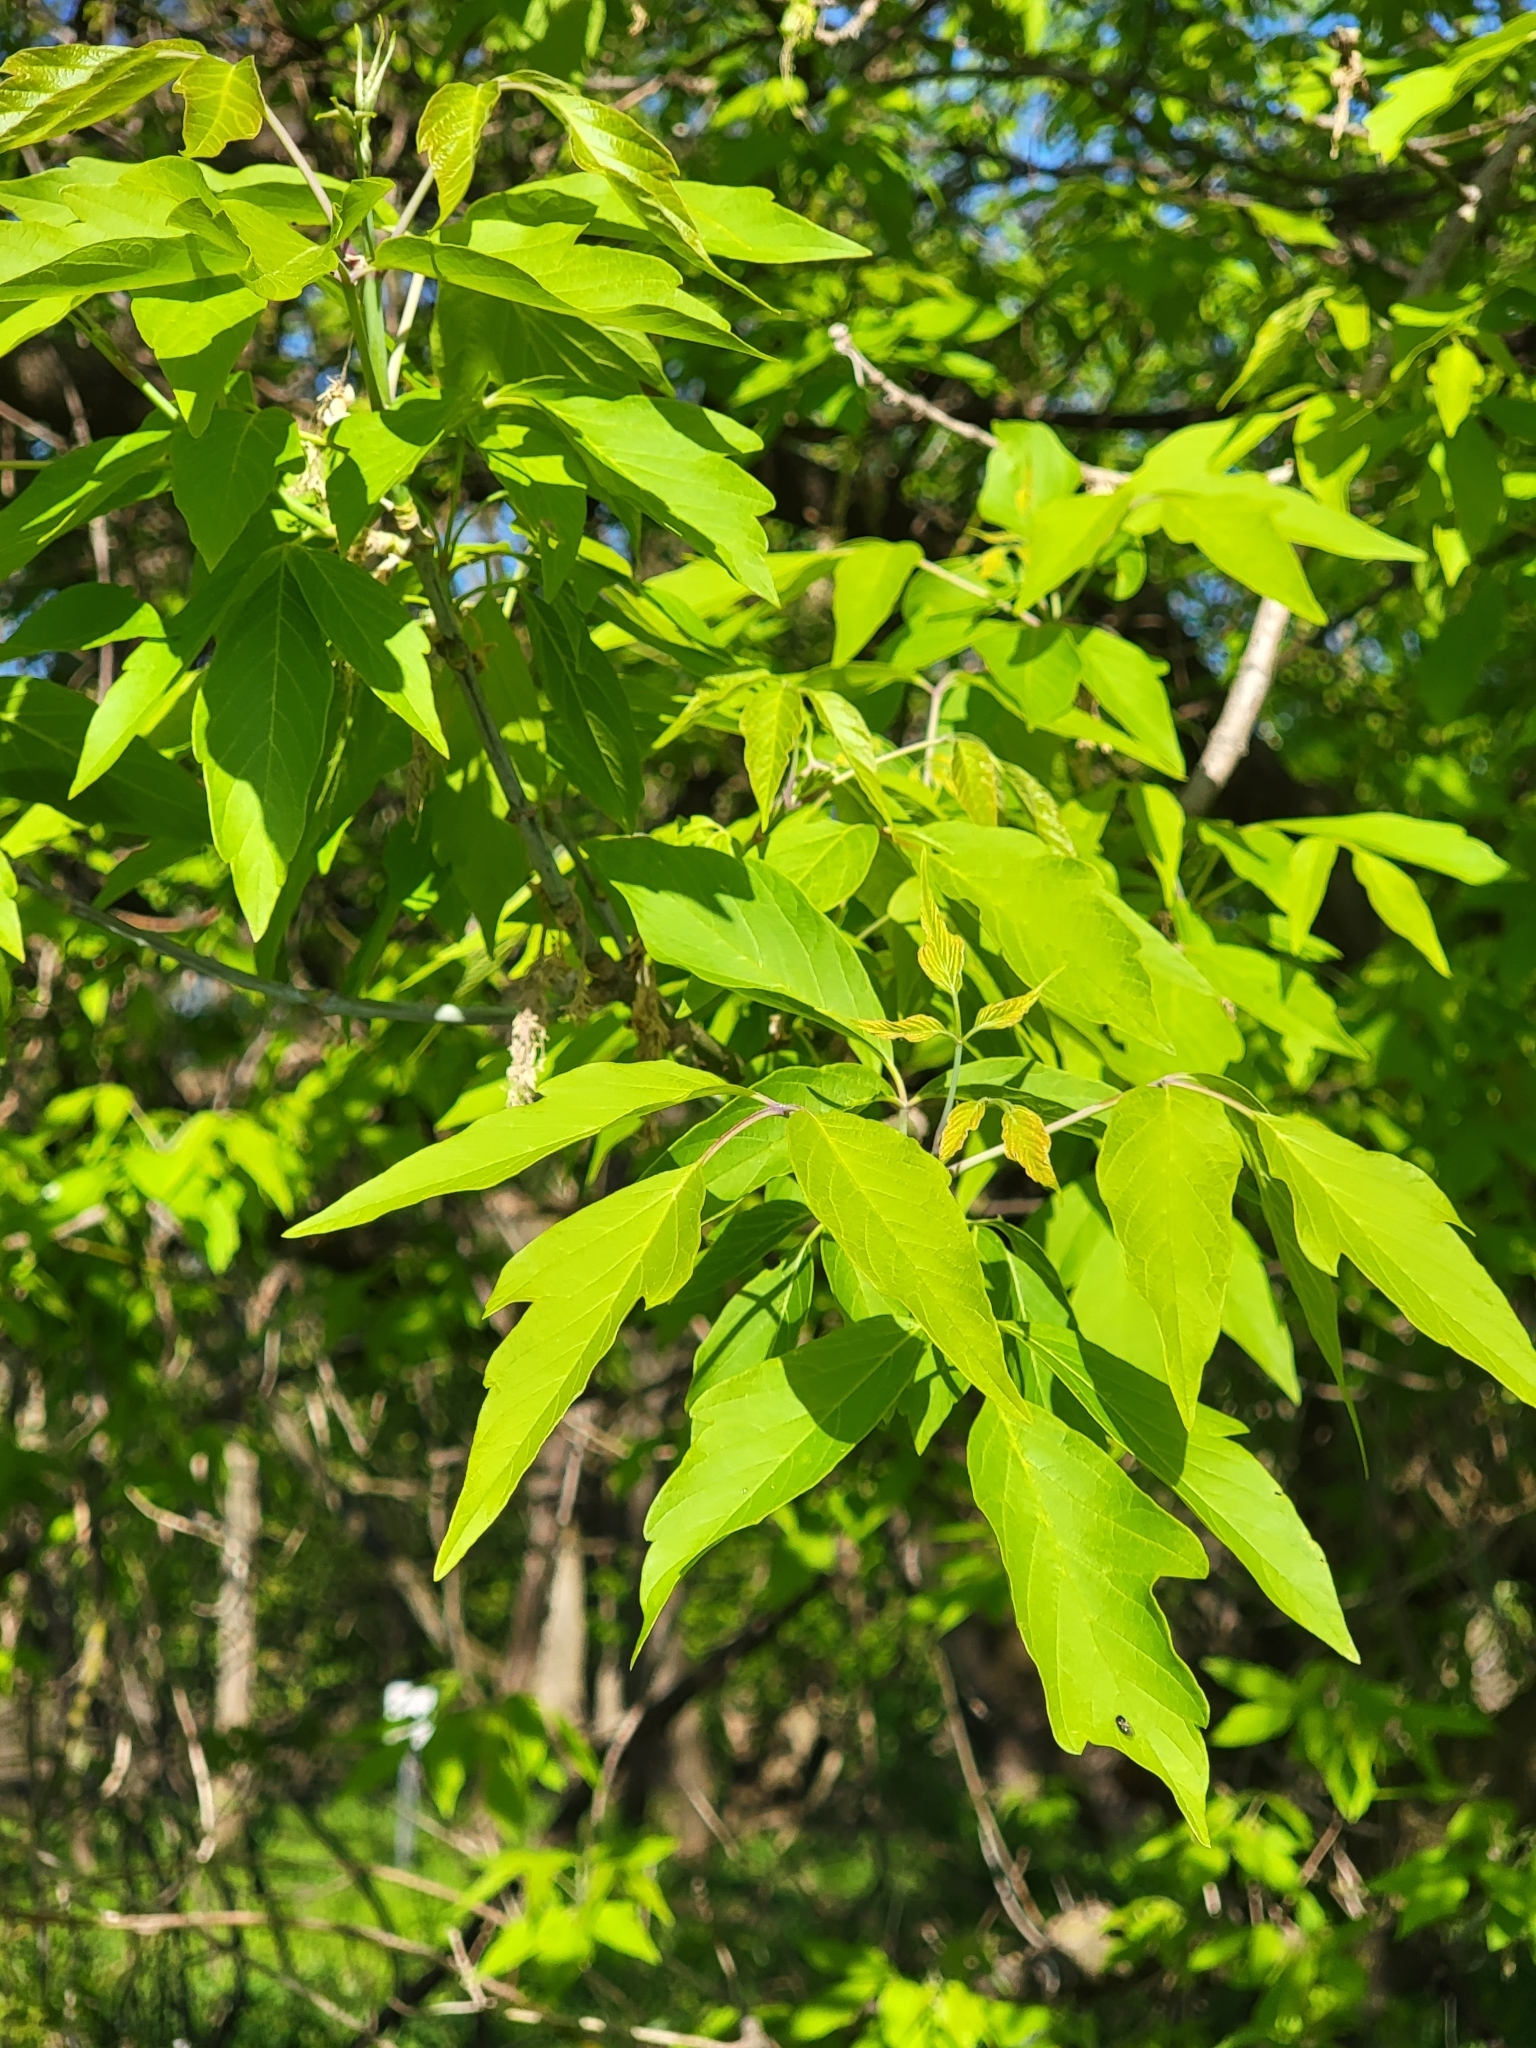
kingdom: Plantae
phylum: Tracheophyta
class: Magnoliopsida
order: Sapindales
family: Sapindaceae
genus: Acer
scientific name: Acer negundo
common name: Ashleaf maple
